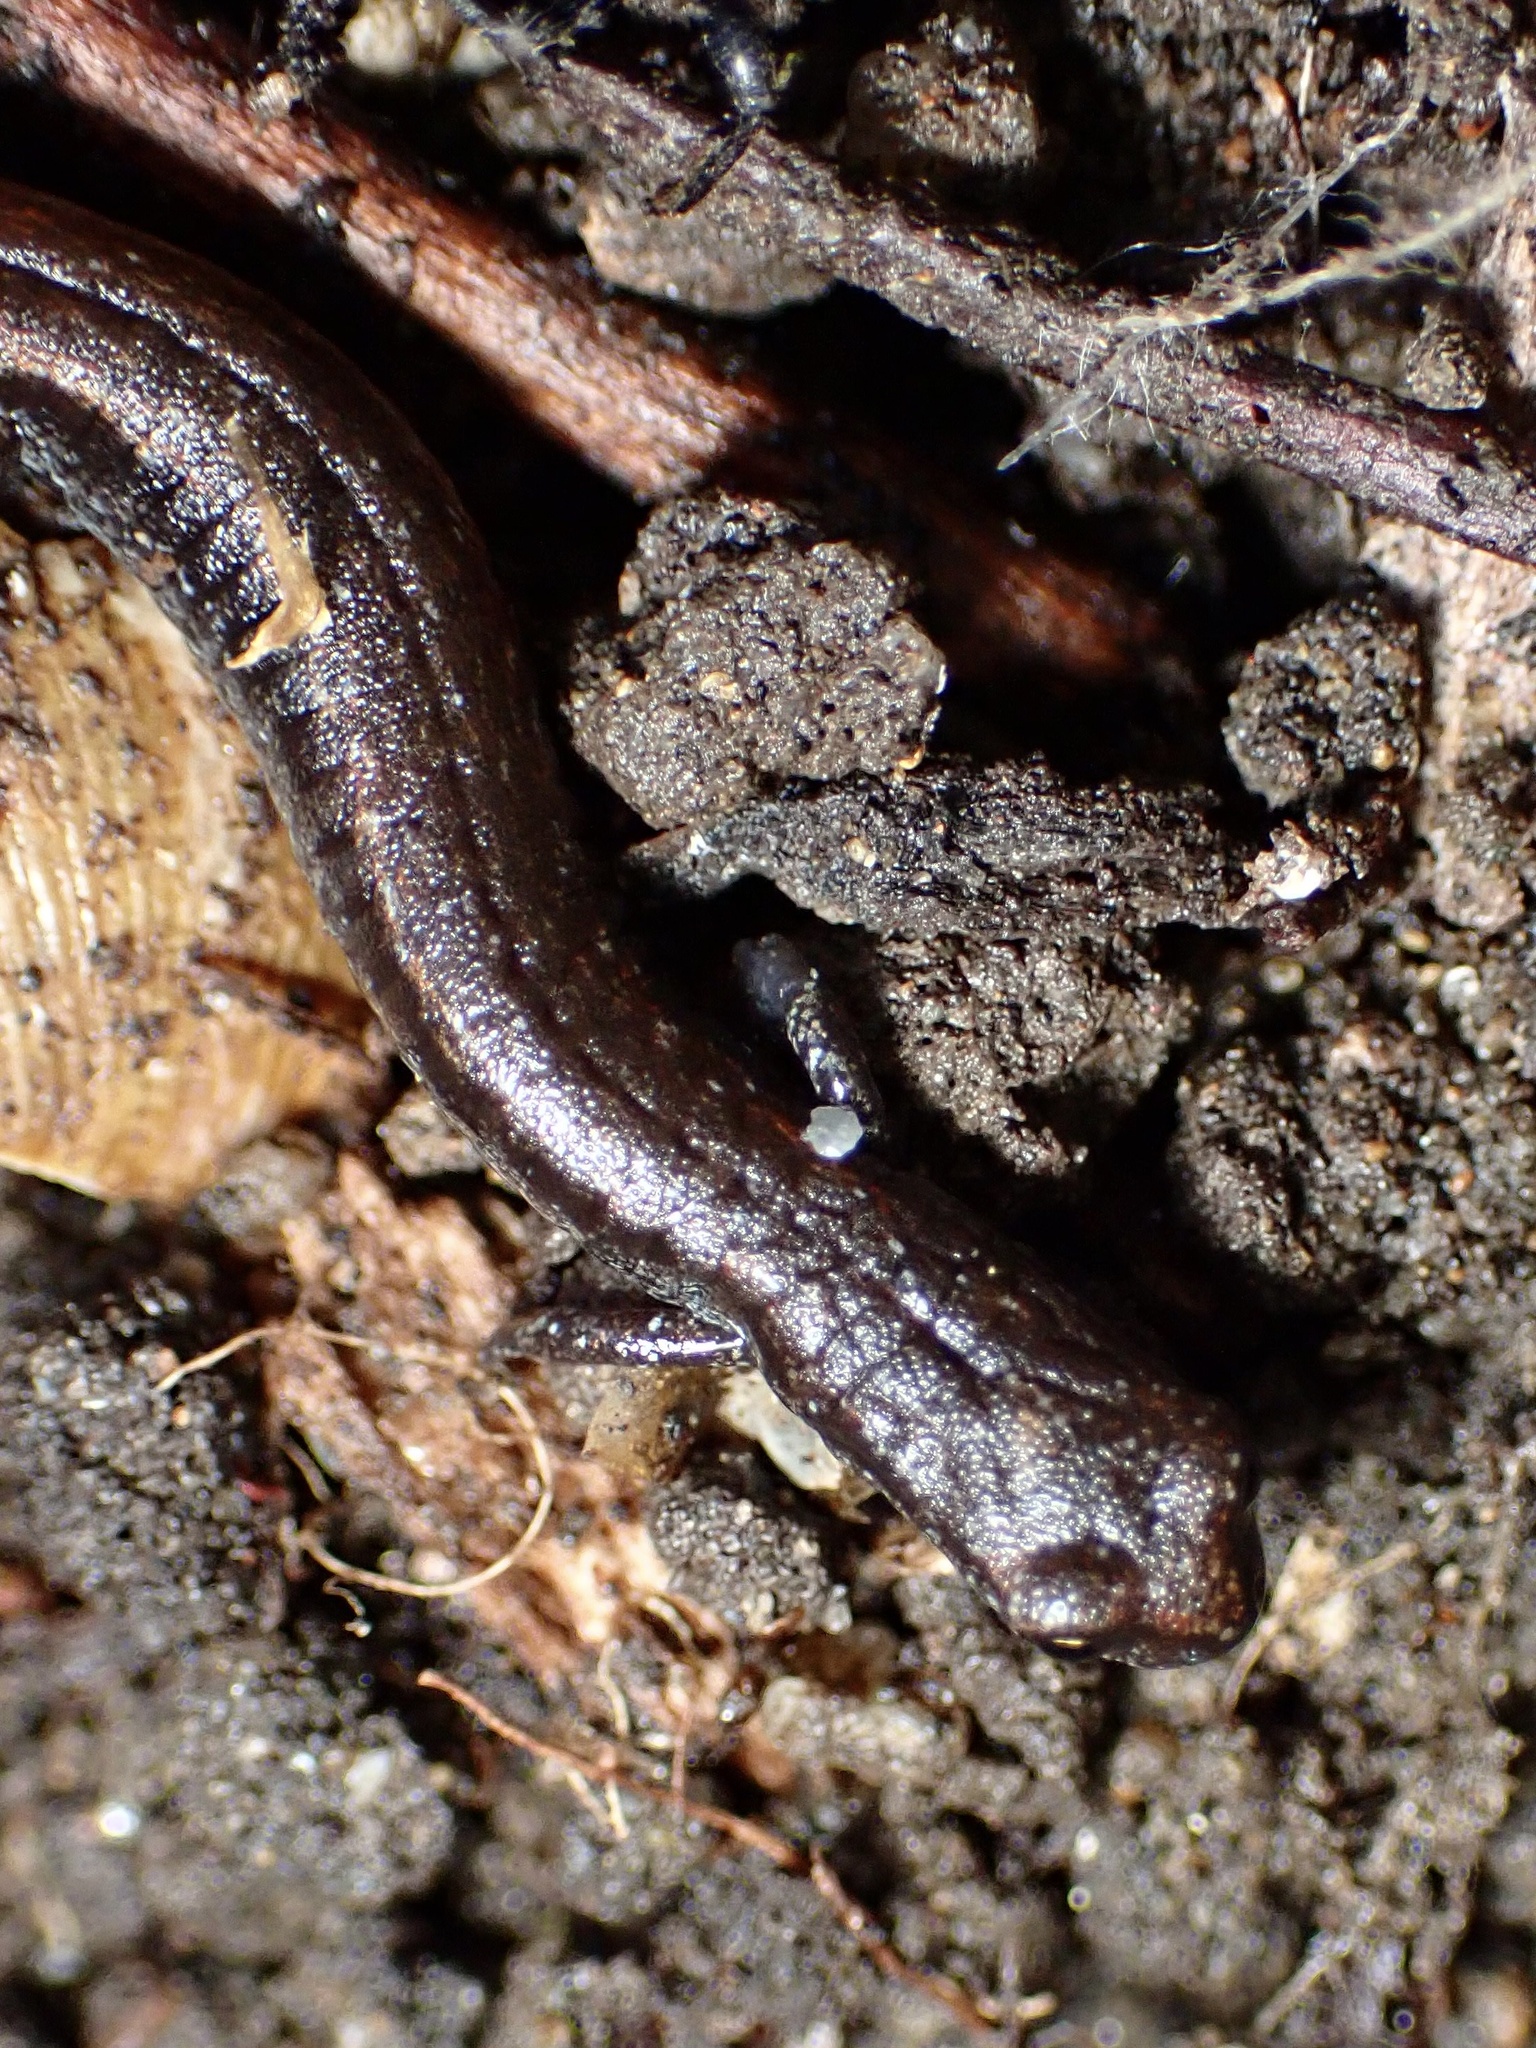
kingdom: Animalia
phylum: Chordata
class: Amphibia
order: Caudata
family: Plethodontidae
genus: Batrachoseps
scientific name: Batrachoseps attenuatus
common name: California slender salamander
